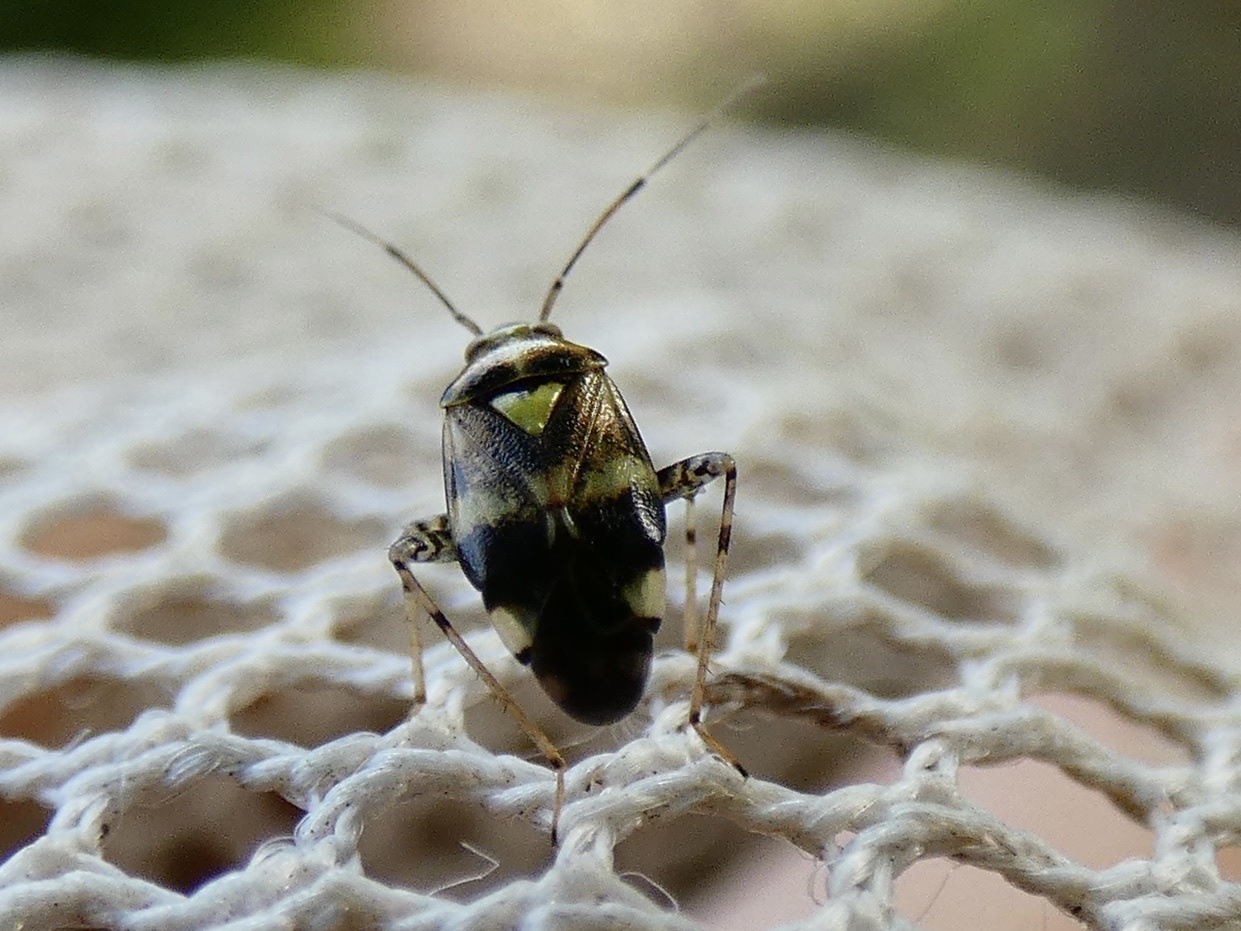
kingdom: Animalia
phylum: Arthropoda
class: Insecta
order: Hemiptera
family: Miridae
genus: Liocoris
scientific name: Liocoris tripustulatus
